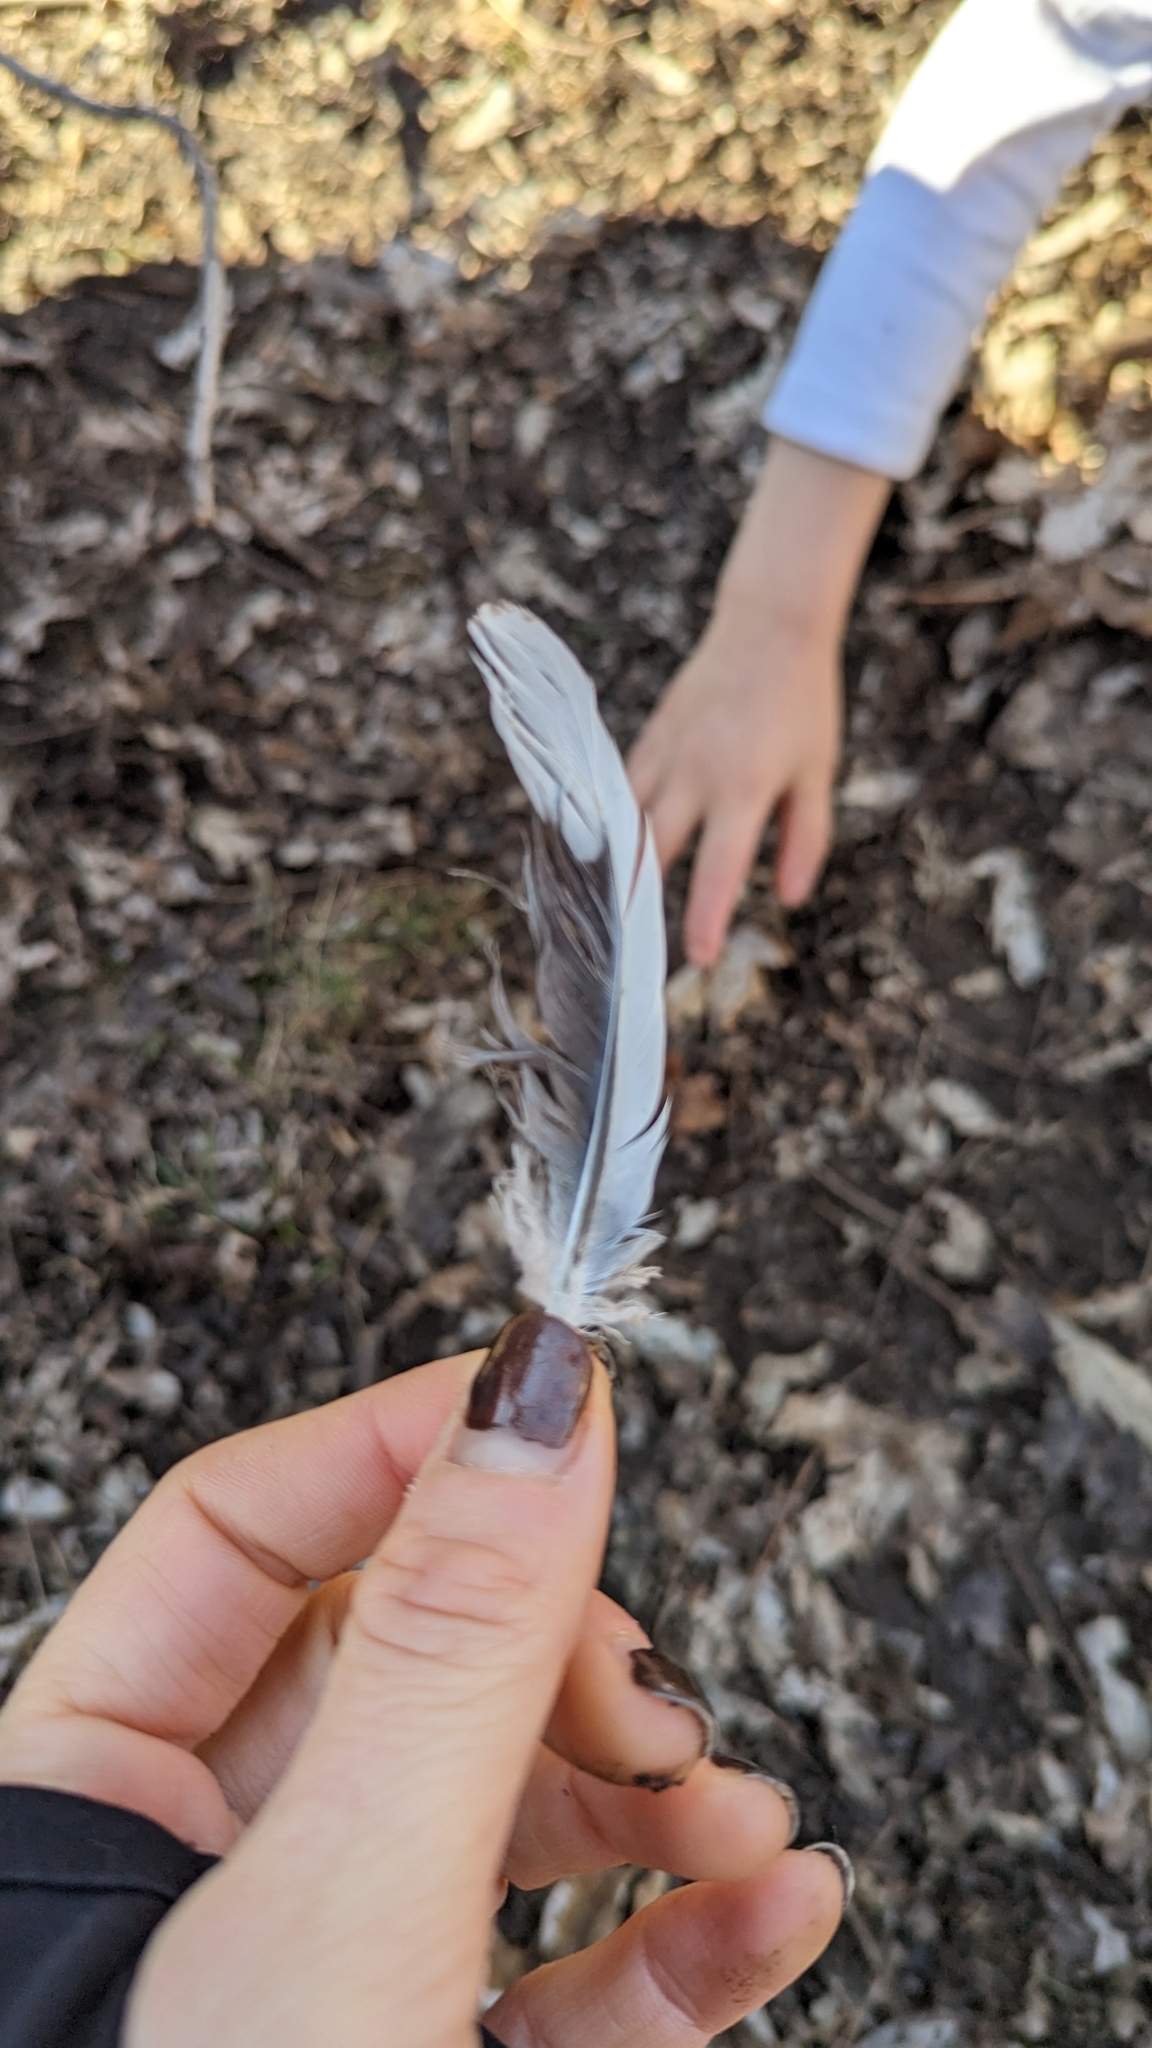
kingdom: Animalia
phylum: Chordata
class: Aves
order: Columbiformes
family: Columbidae
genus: Zenaida
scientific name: Zenaida macroura
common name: Mourning dove
